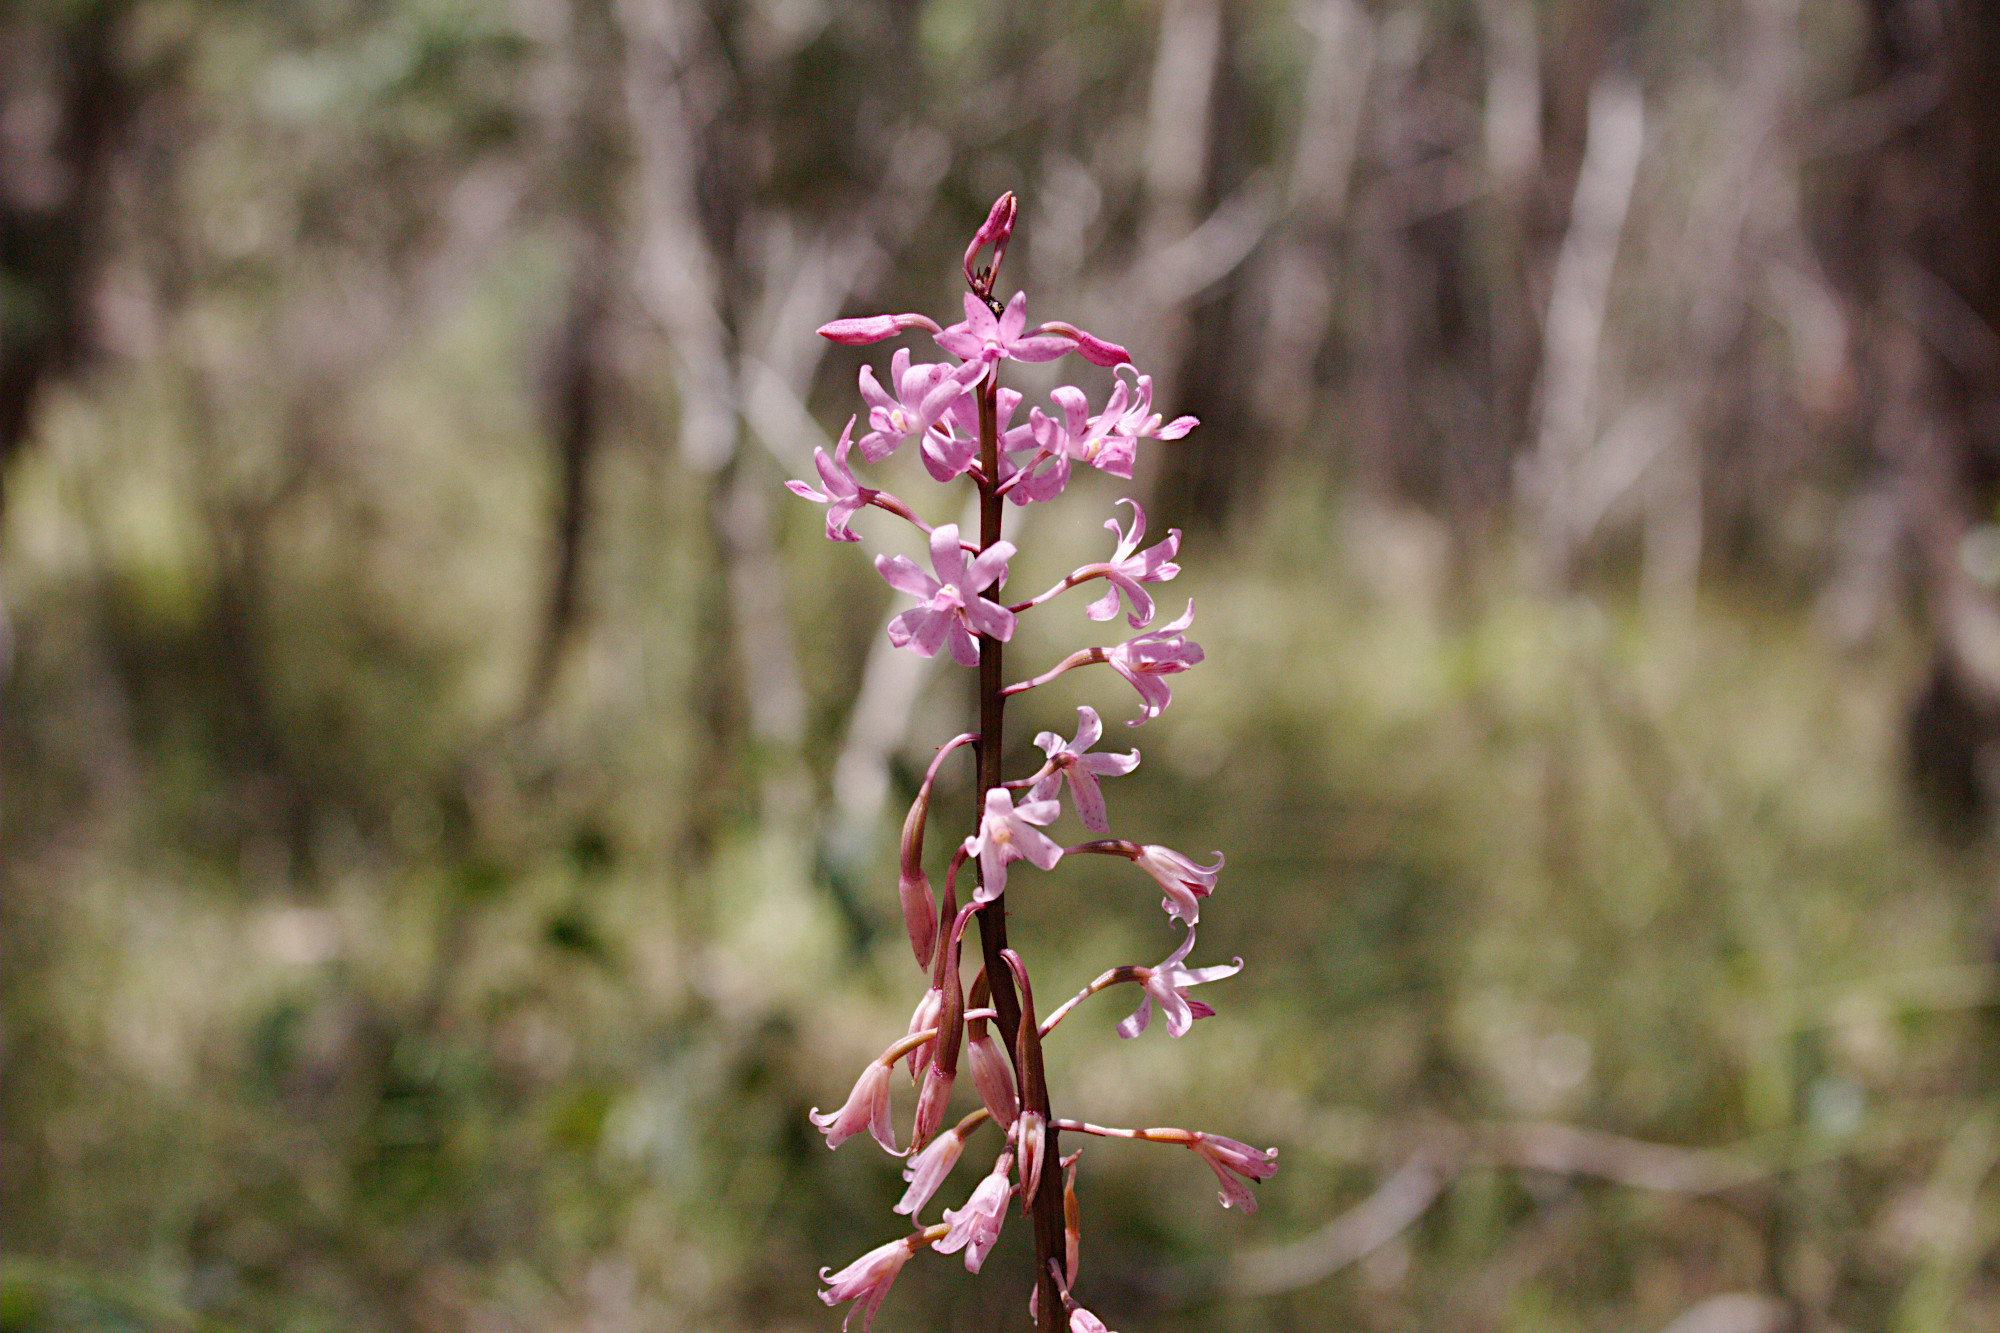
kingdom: Plantae
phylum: Tracheophyta
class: Liliopsida
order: Asparagales
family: Orchidaceae
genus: Dipodium
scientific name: Dipodium roseum
